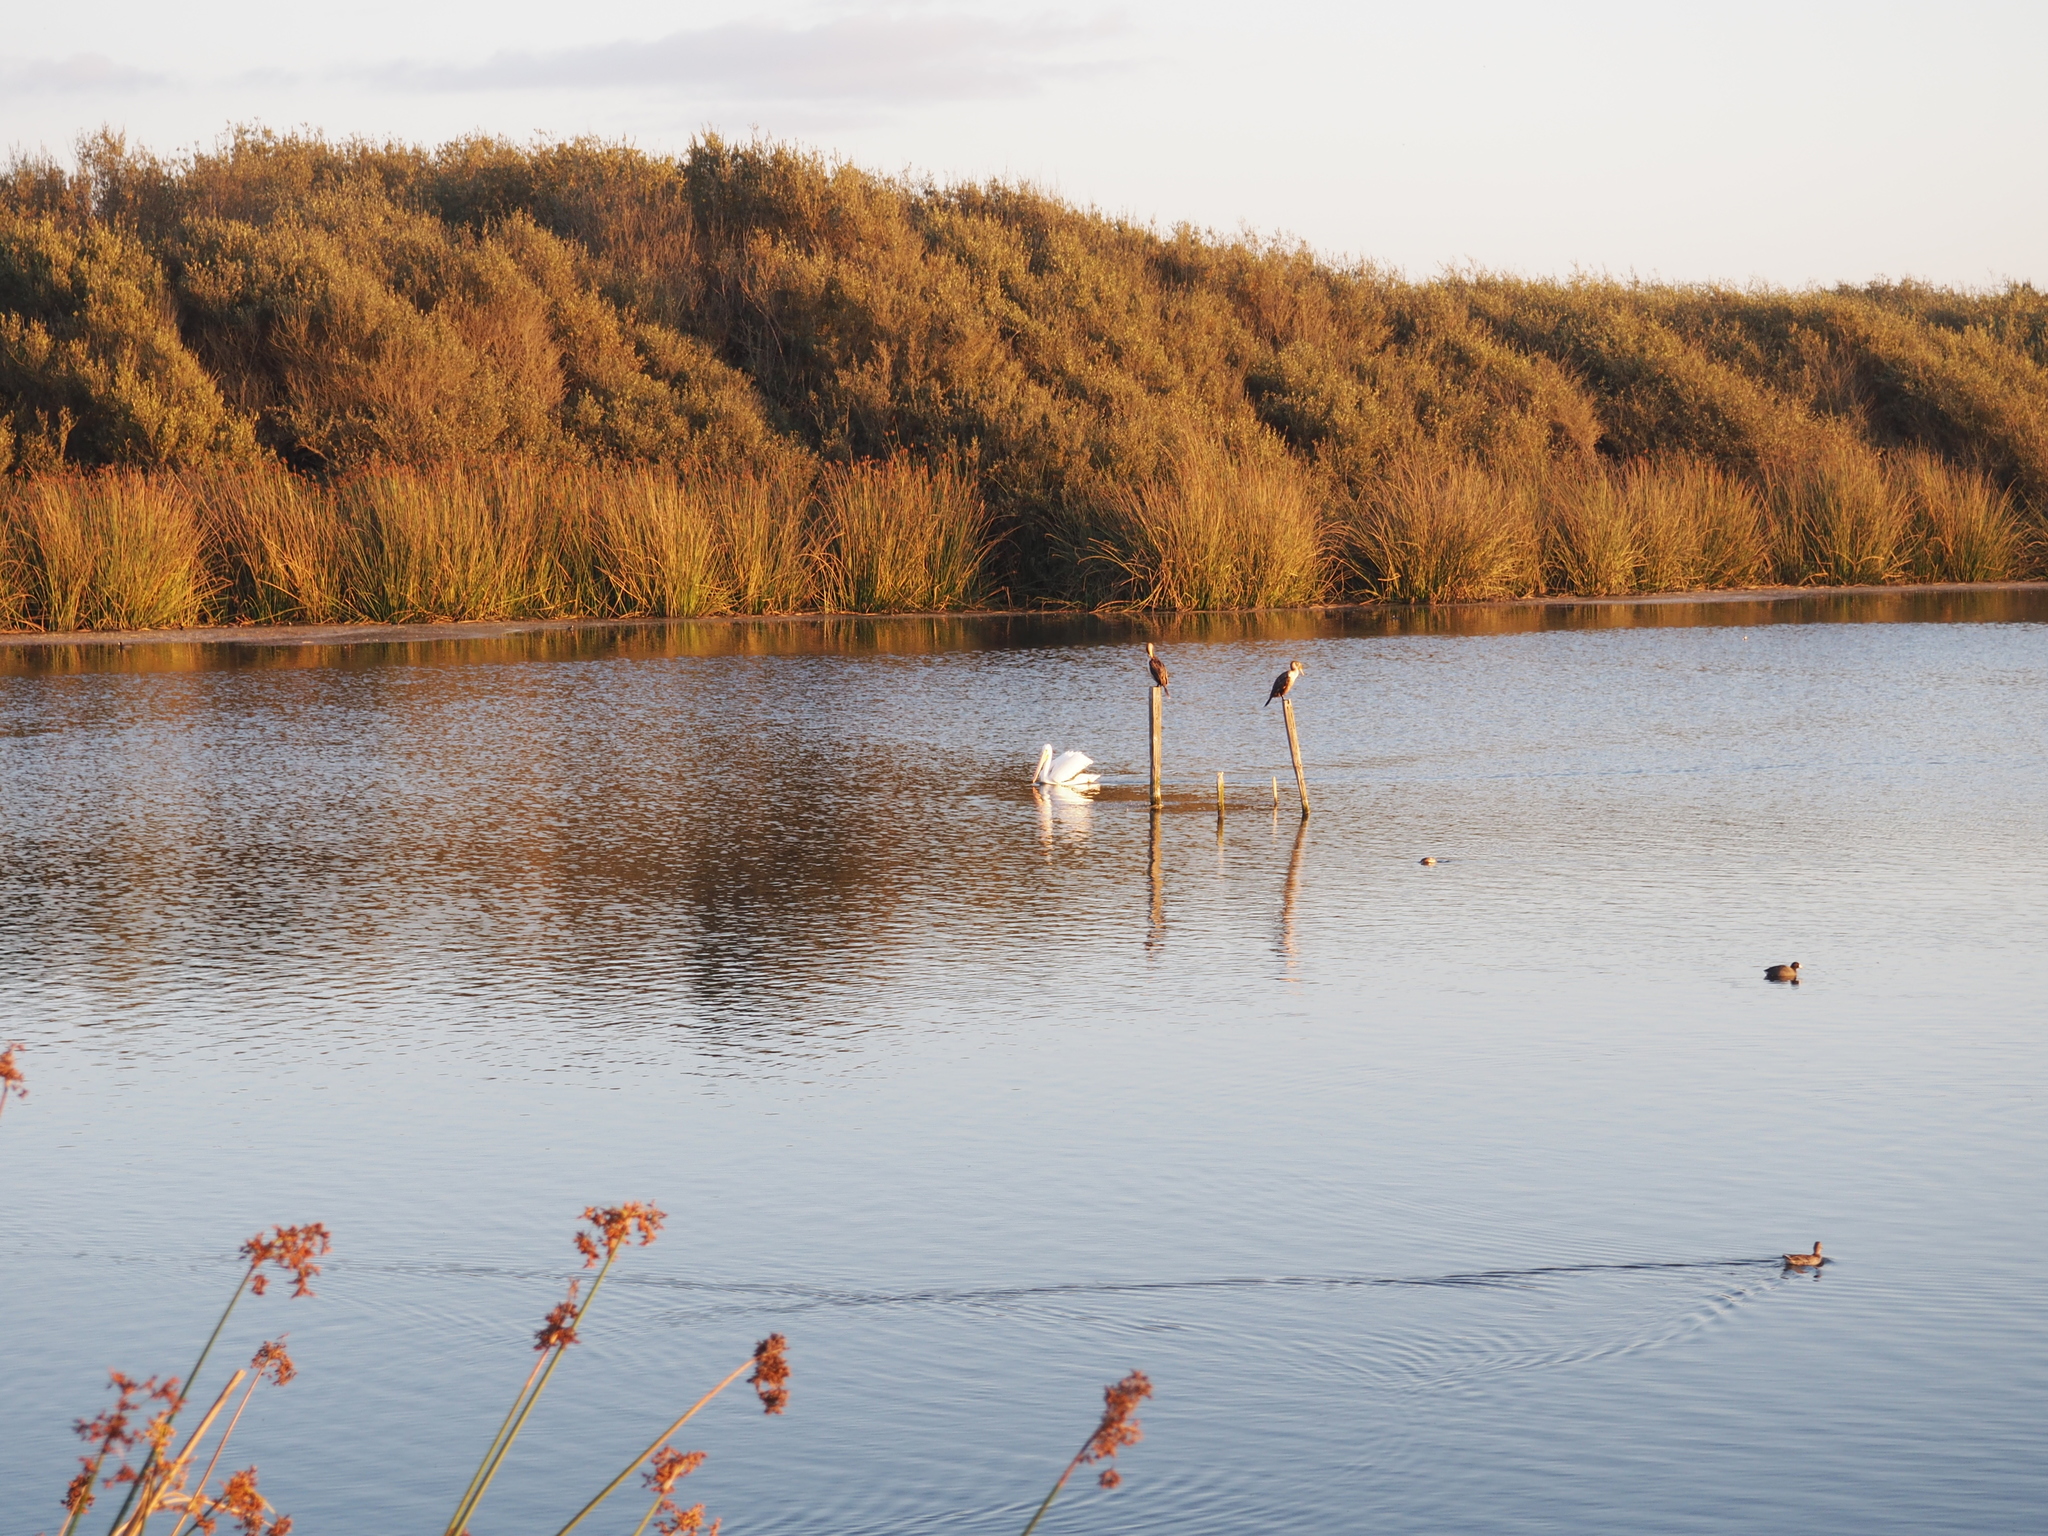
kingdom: Animalia
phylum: Chordata
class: Aves
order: Pelecaniformes
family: Pelecanidae
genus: Pelecanus
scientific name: Pelecanus erythrorhynchos
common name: American white pelican
